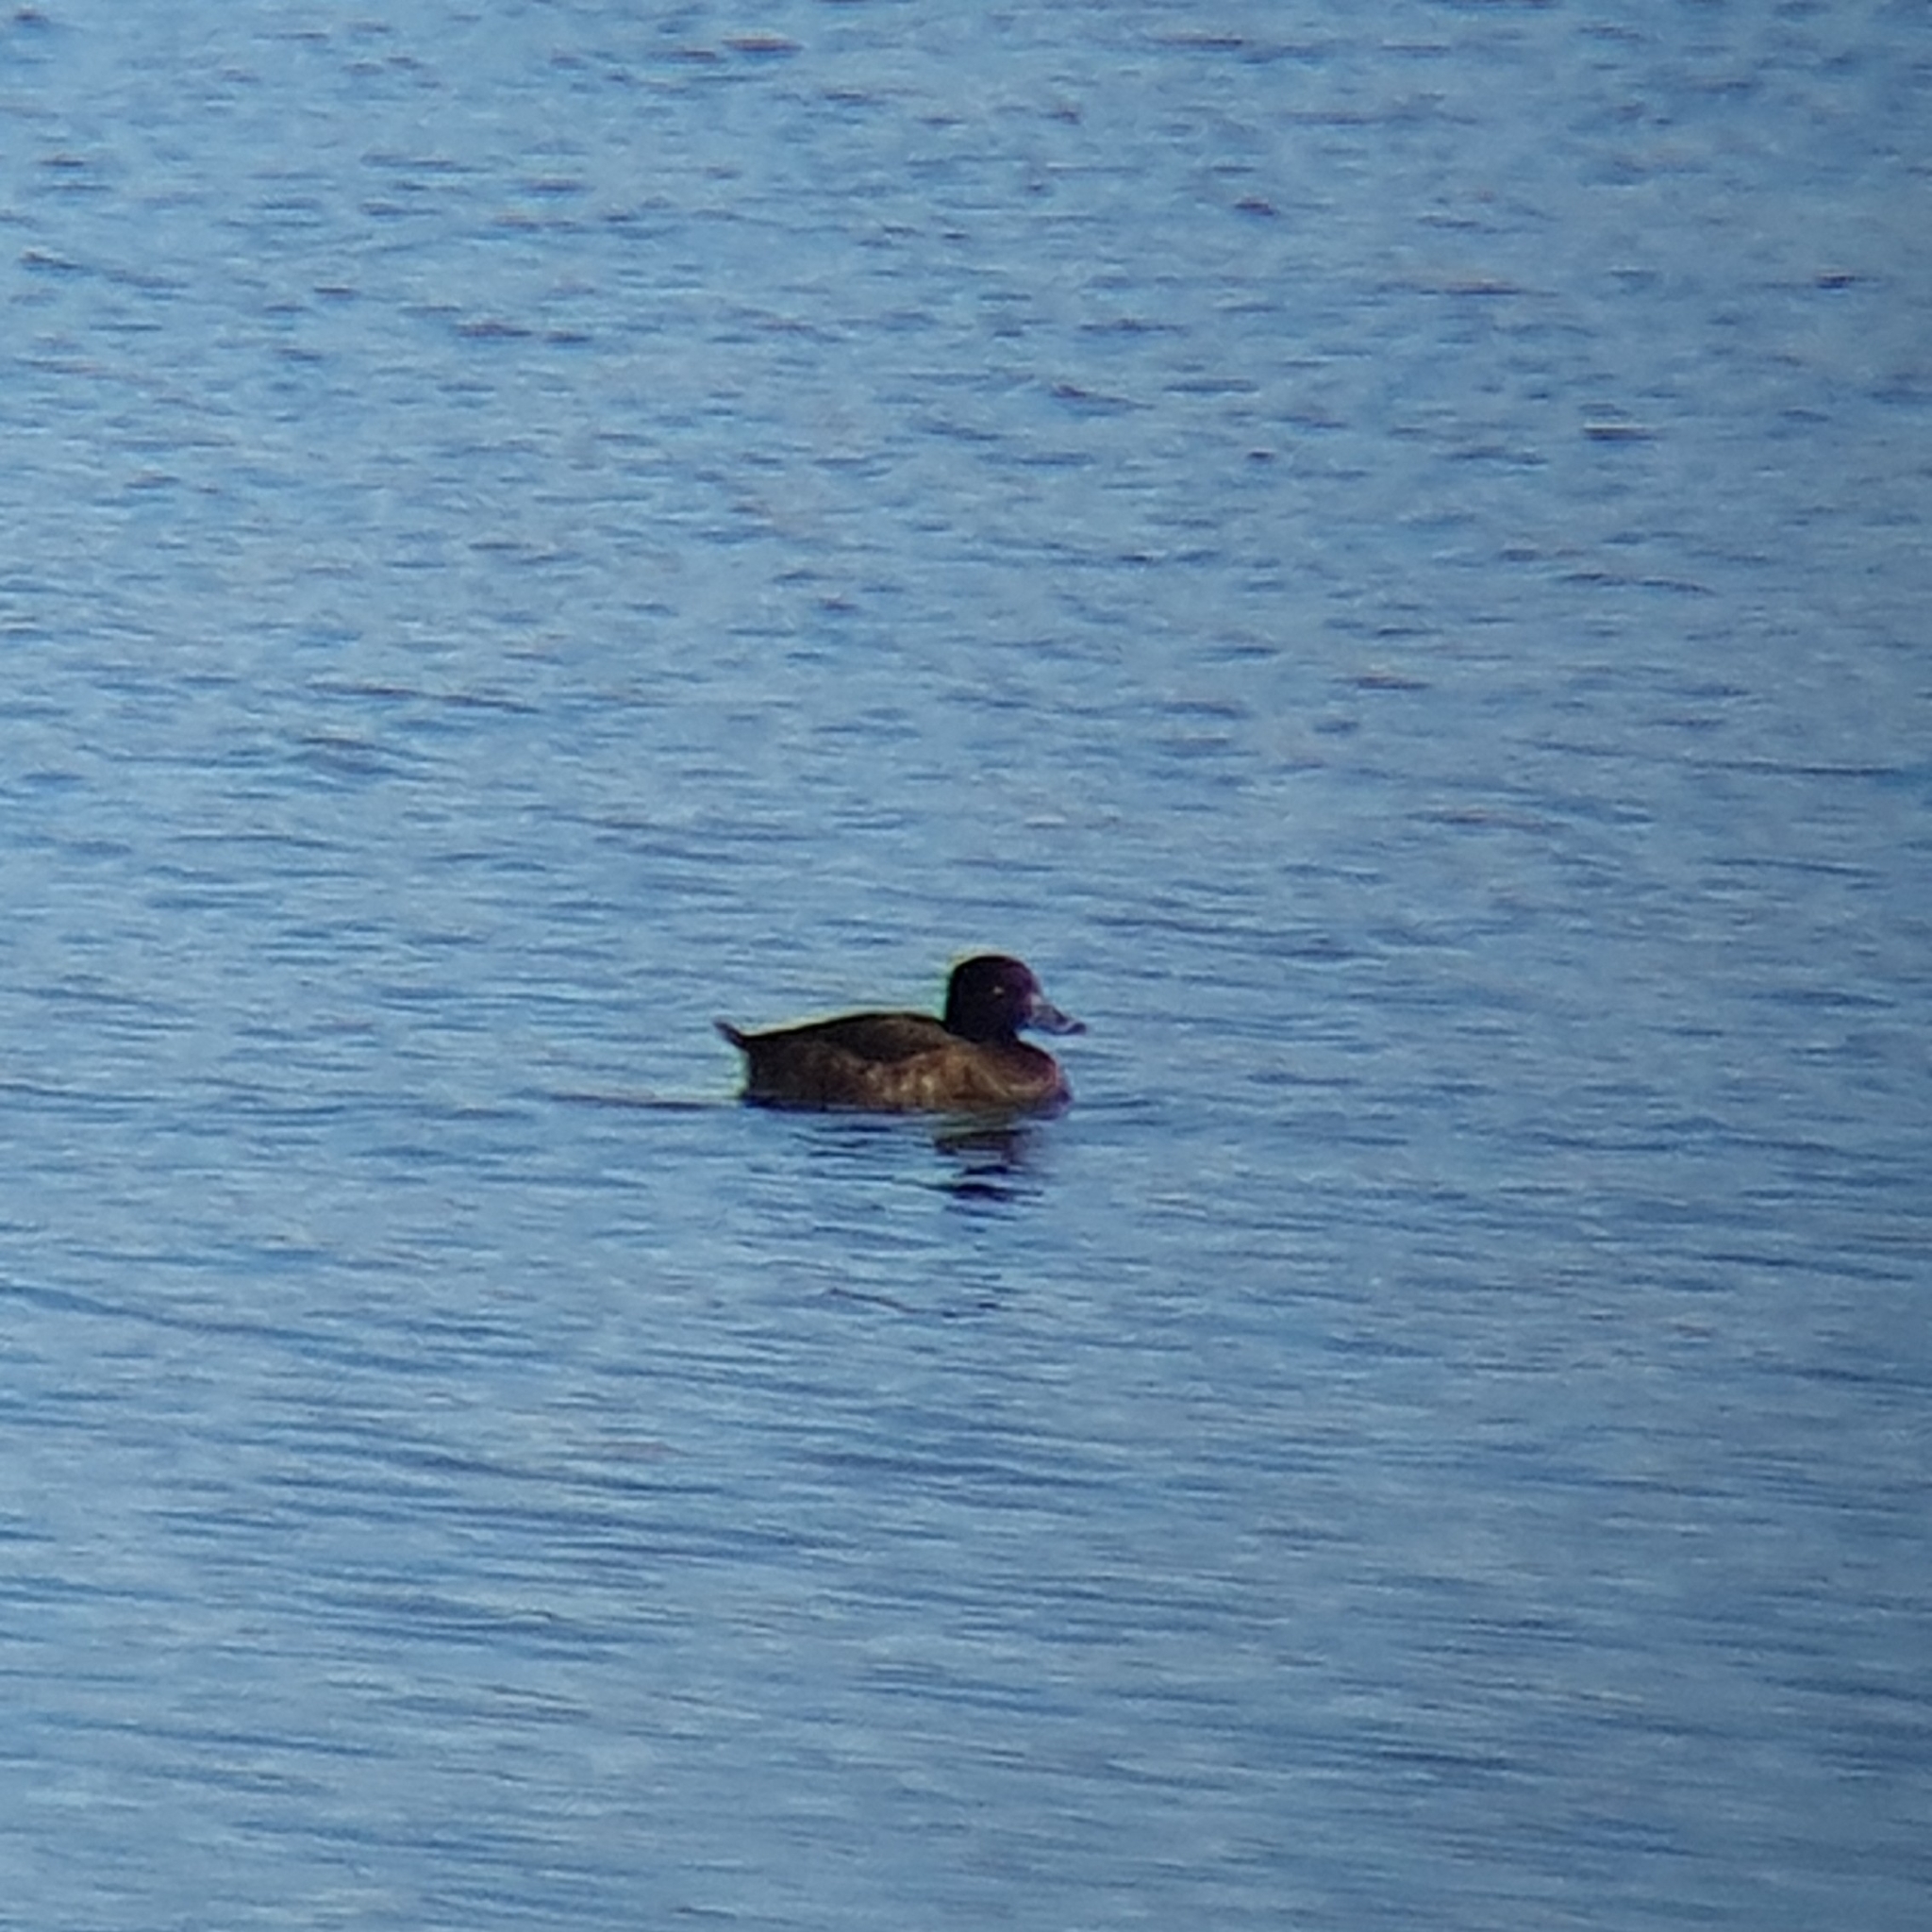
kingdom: Animalia
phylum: Chordata
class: Aves
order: Anseriformes
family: Anatidae
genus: Aythya
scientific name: Aythya fuligula
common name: Tufted duck
